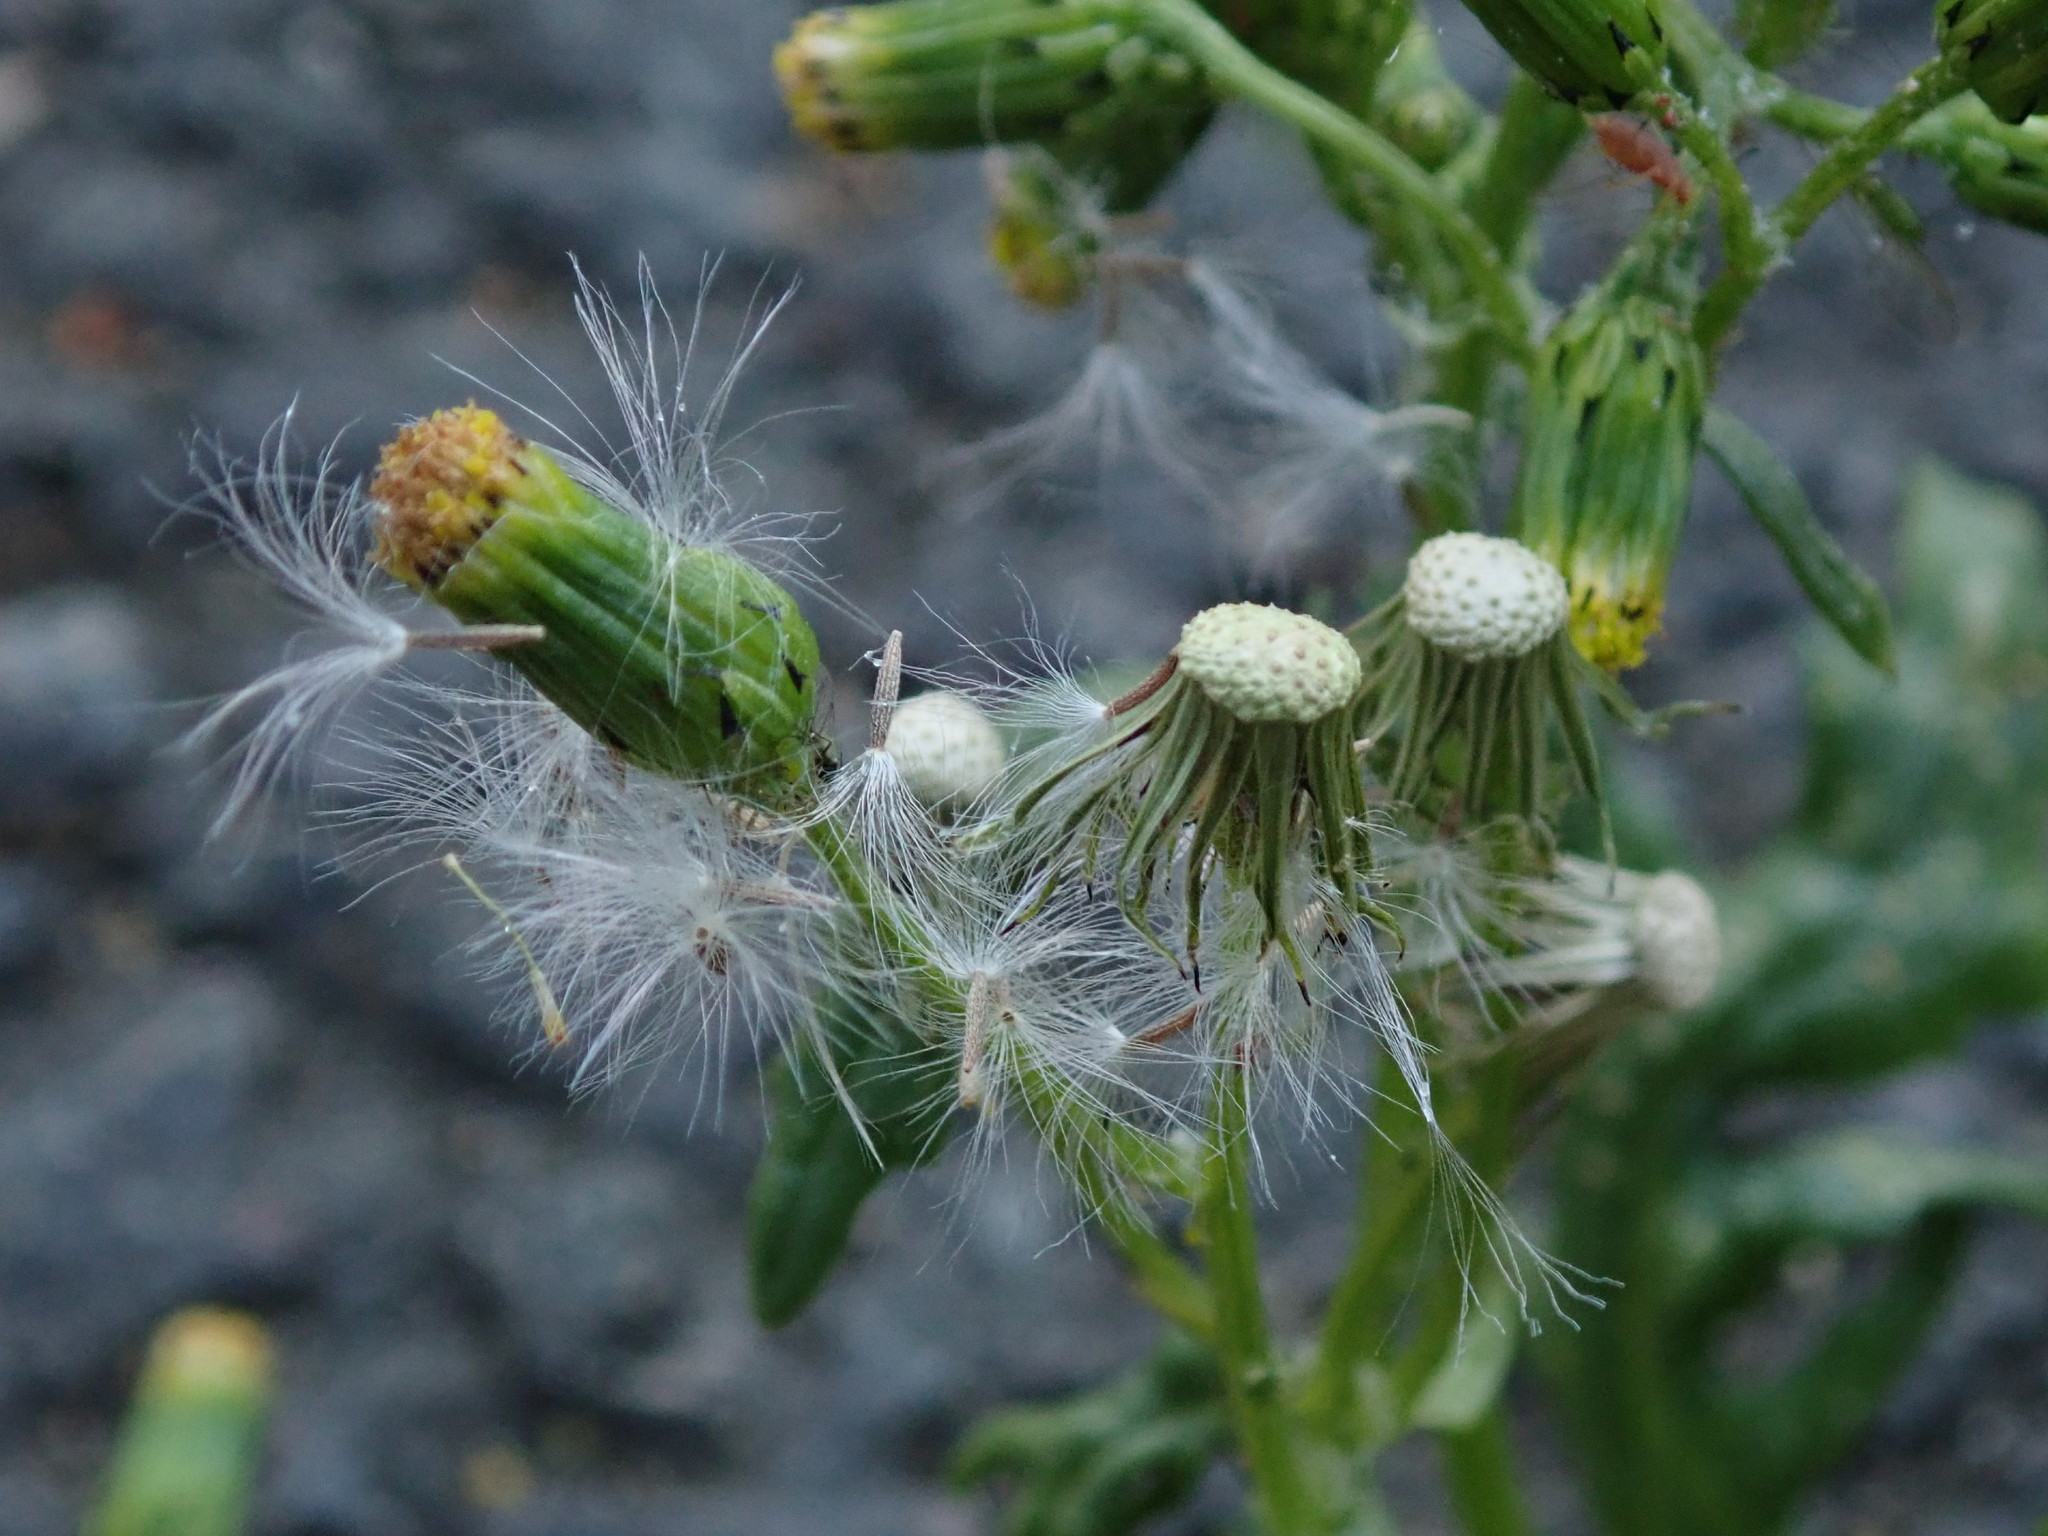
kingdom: Plantae
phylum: Tracheophyta
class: Magnoliopsida
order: Asterales
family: Asteraceae
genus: Senecio
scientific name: Senecio vulgaris
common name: Old-man-in-the-spring
